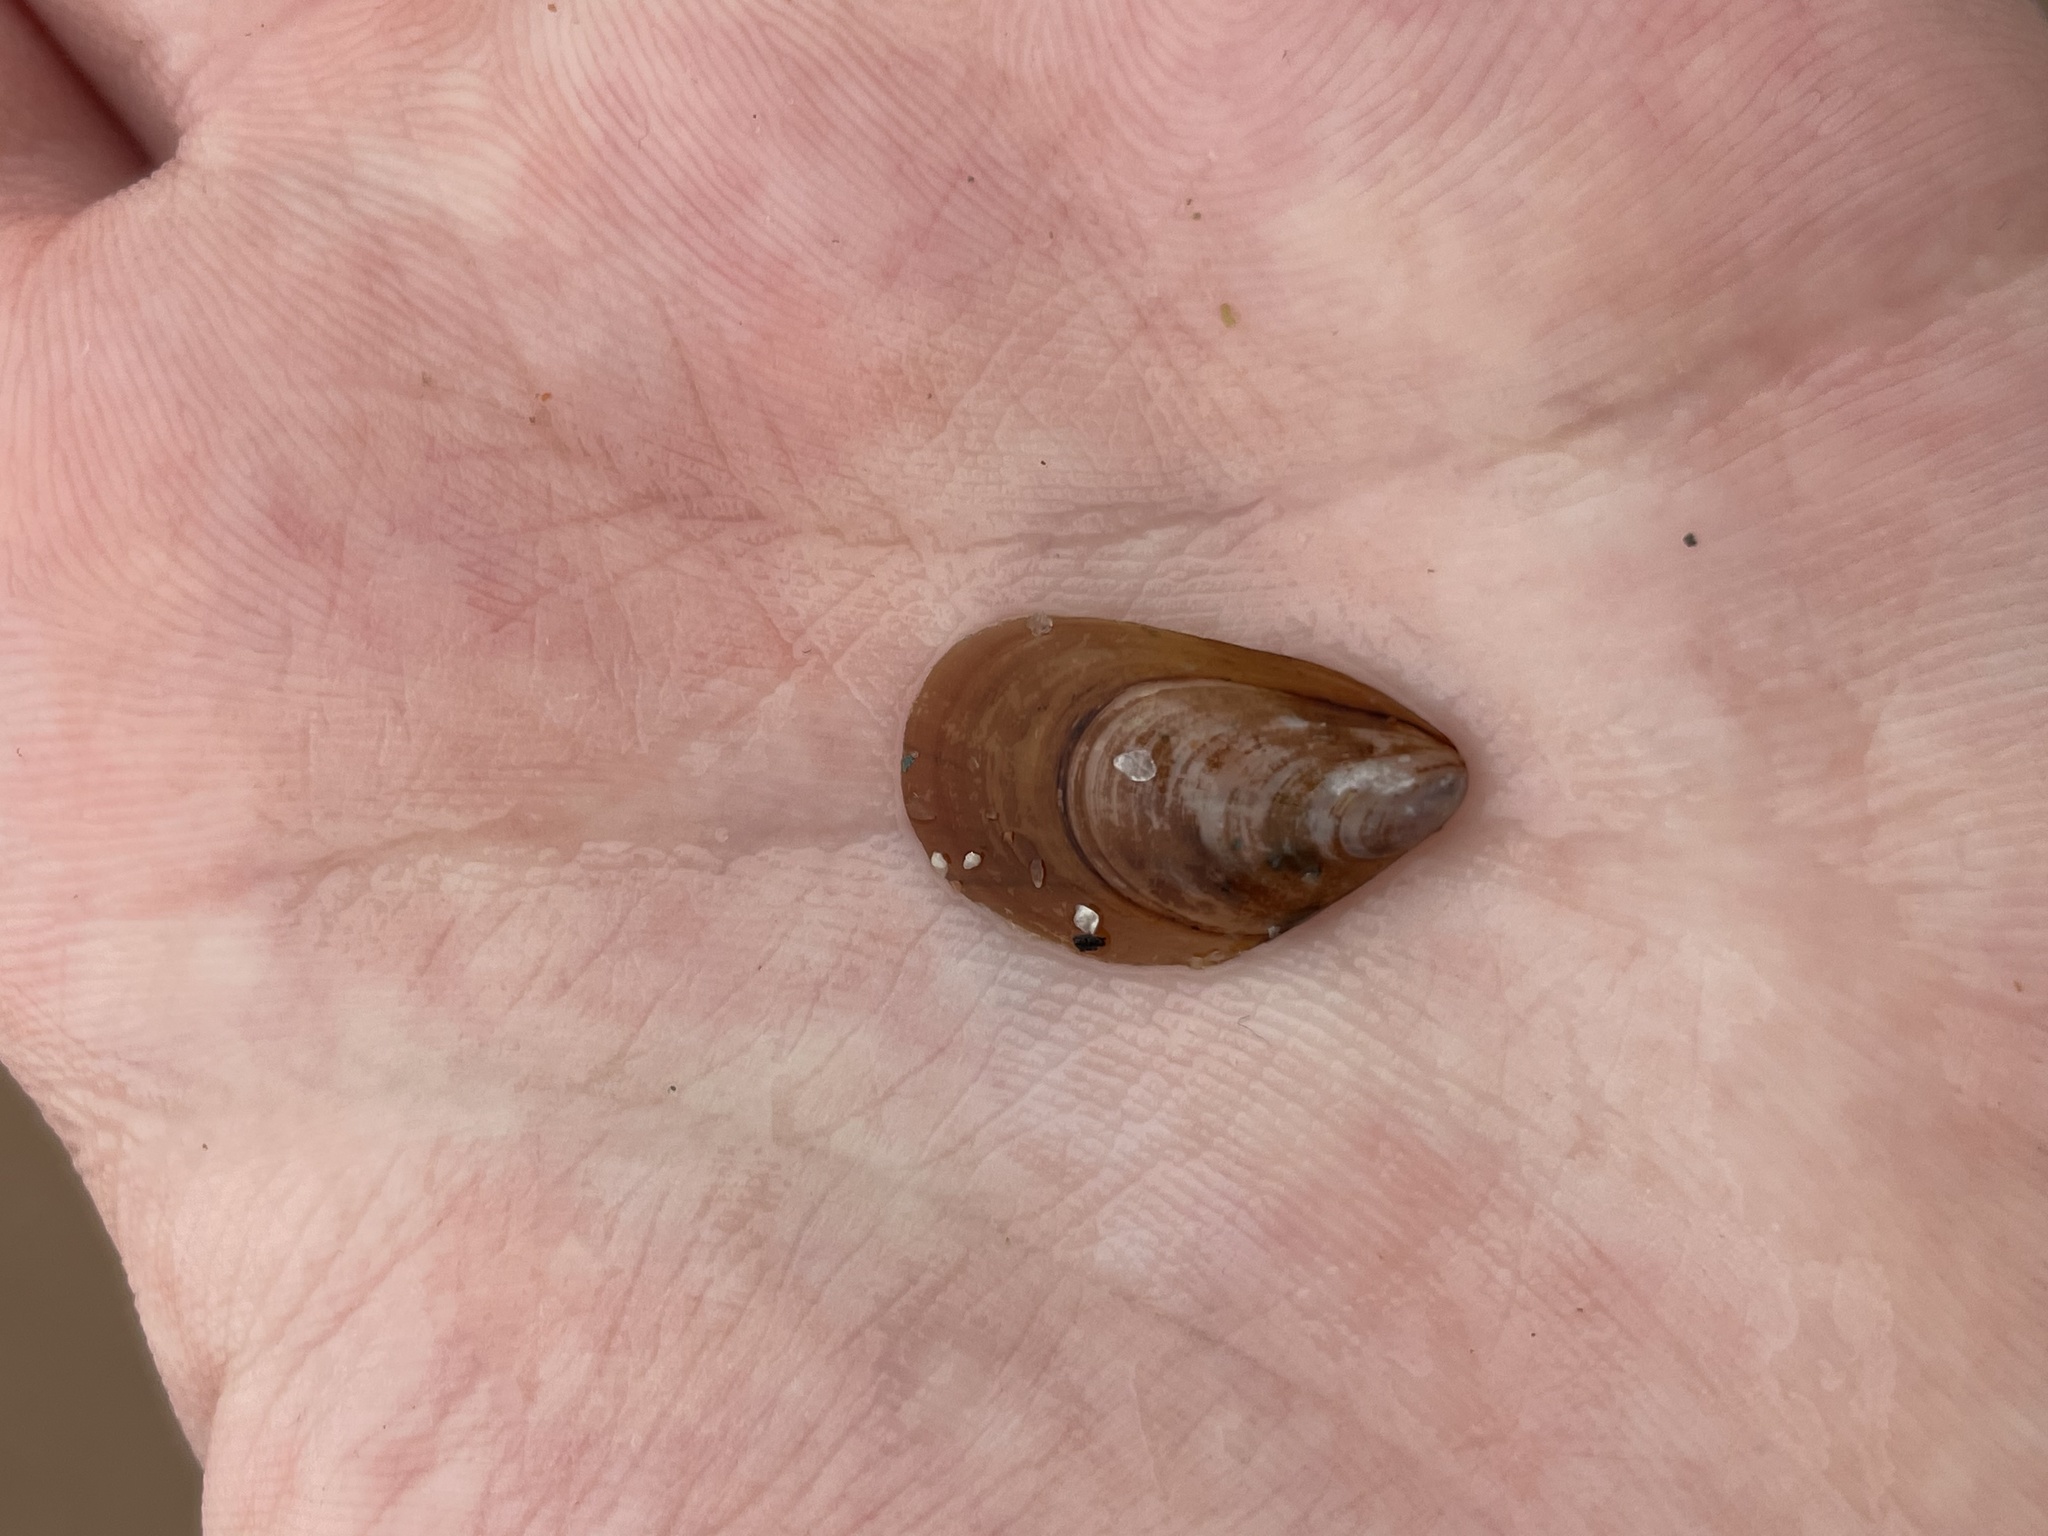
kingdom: Animalia
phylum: Mollusca
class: Bivalvia
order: Mytilida
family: Mytilidae
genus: Mytilus
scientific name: Mytilus edulis
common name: Blue mussel
